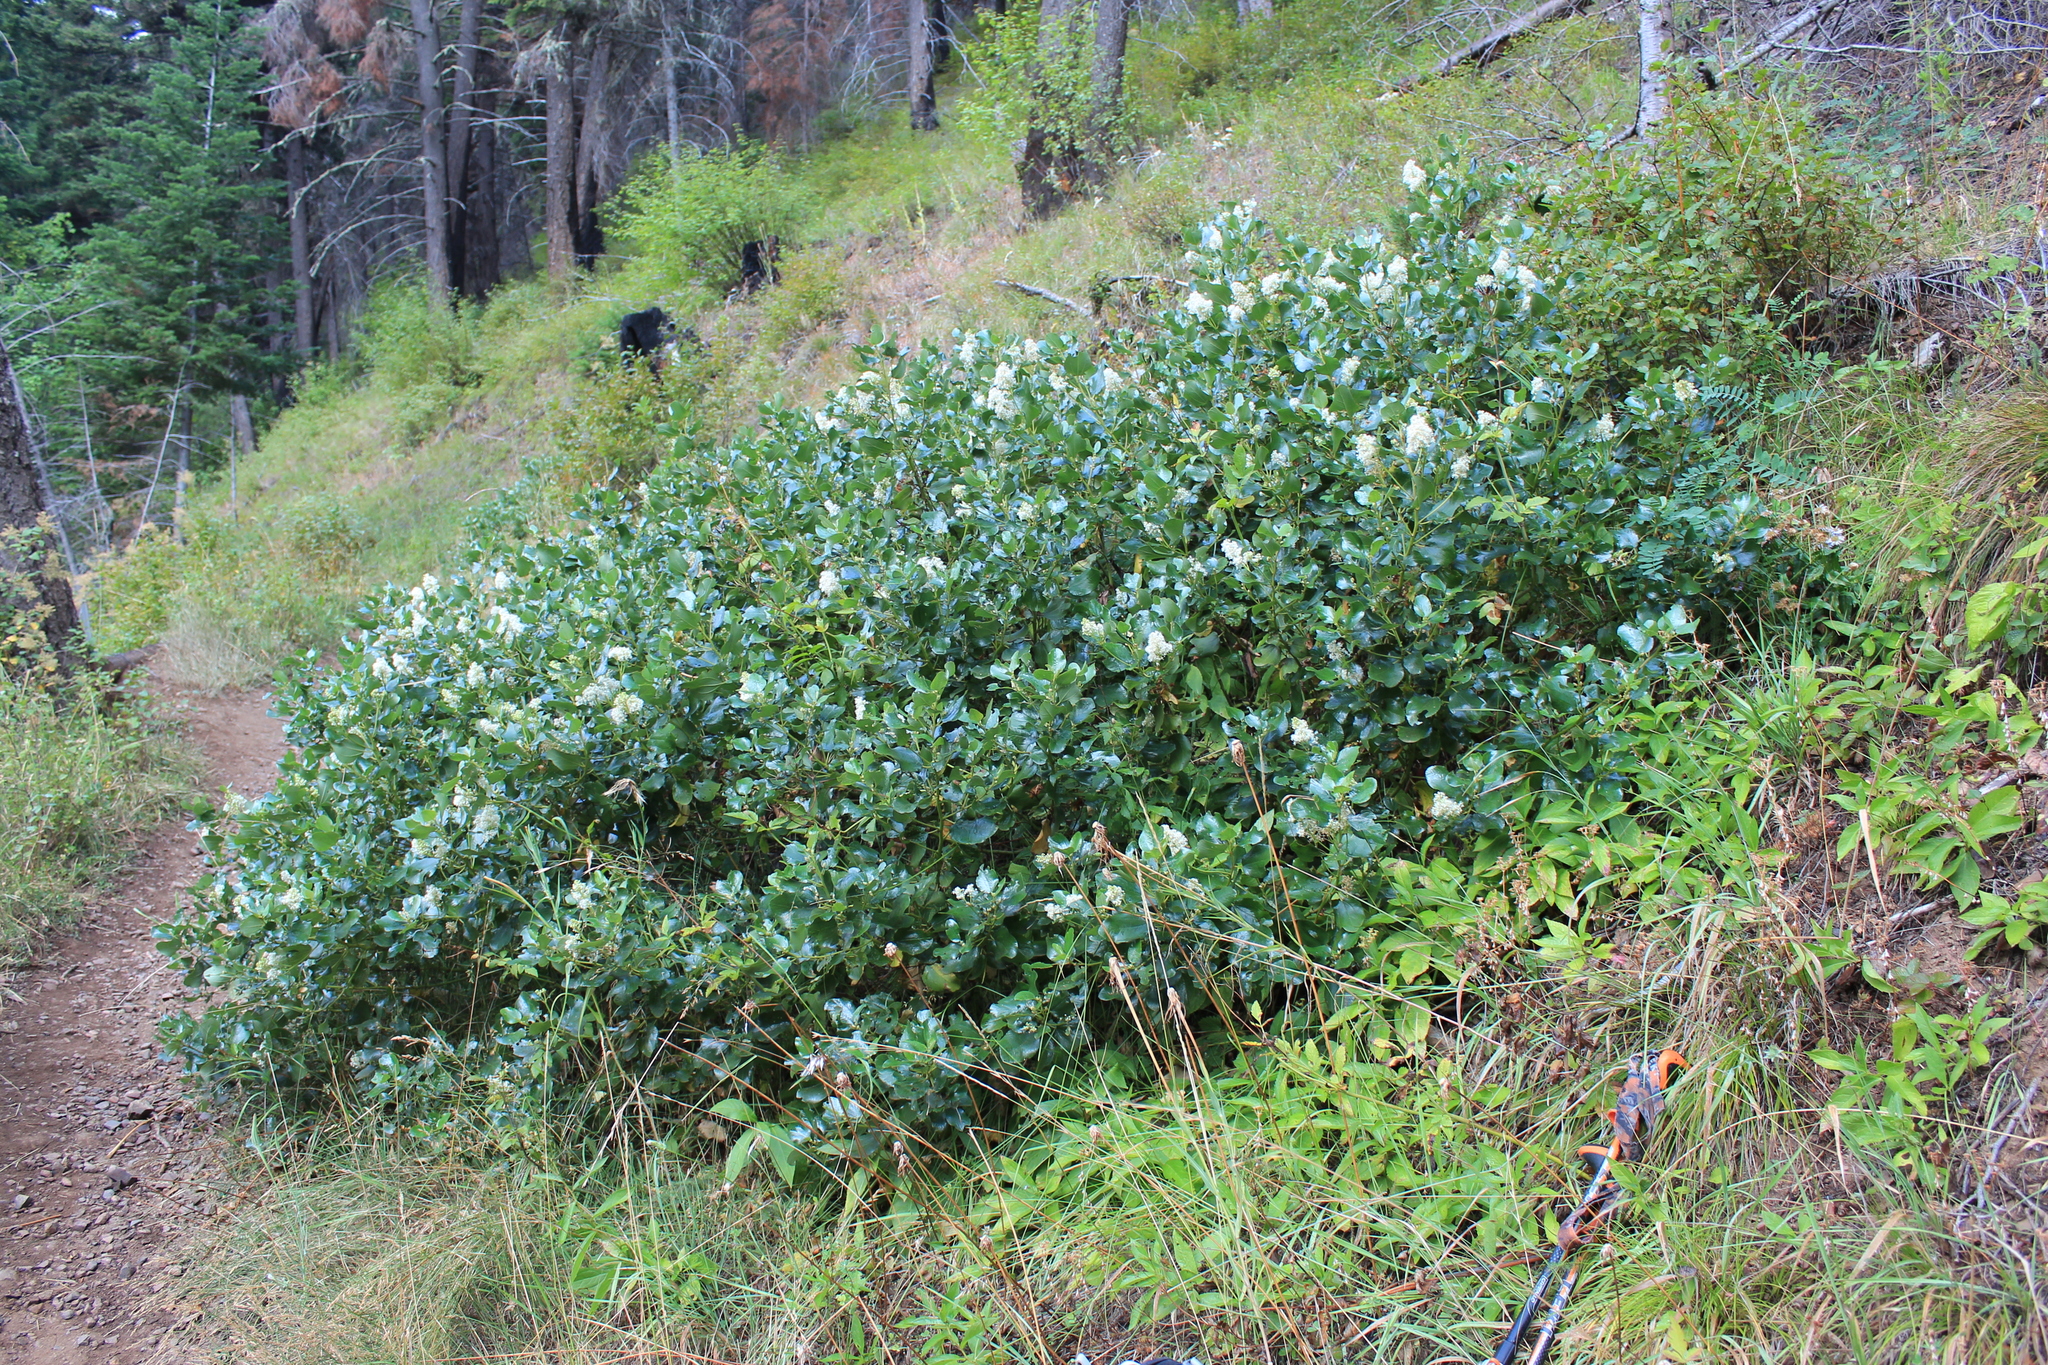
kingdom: Plantae
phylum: Tracheophyta
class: Magnoliopsida
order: Rosales
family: Rhamnaceae
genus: Ceanothus
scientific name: Ceanothus velutinus
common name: Snowbrush
